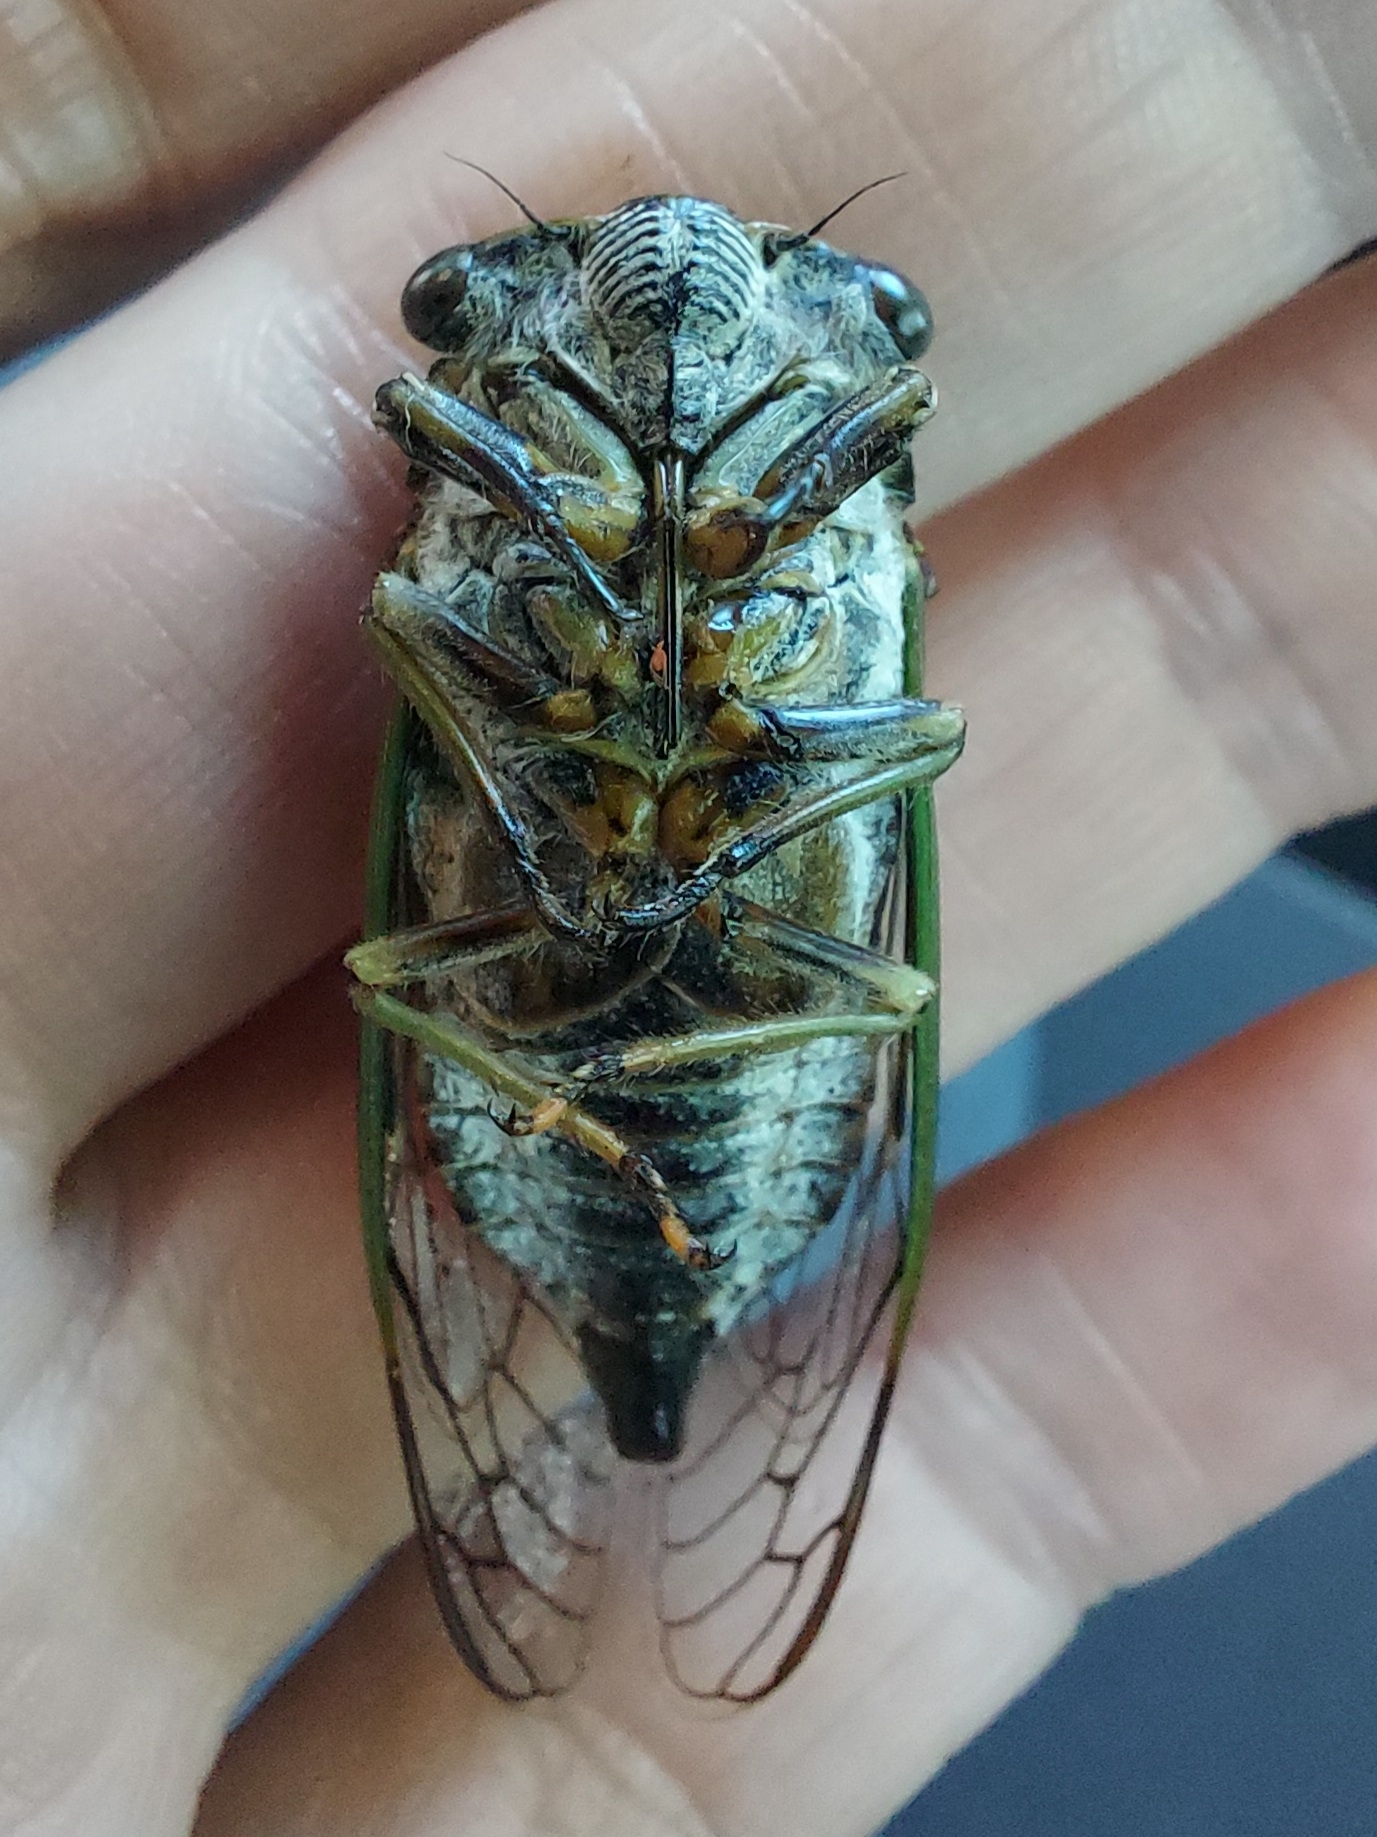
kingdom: Animalia
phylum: Arthropoda
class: Insecta
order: Hemiptera
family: Cicadidae
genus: Neotibicen
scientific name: Neotibicen canicularis
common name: God-day cicada
